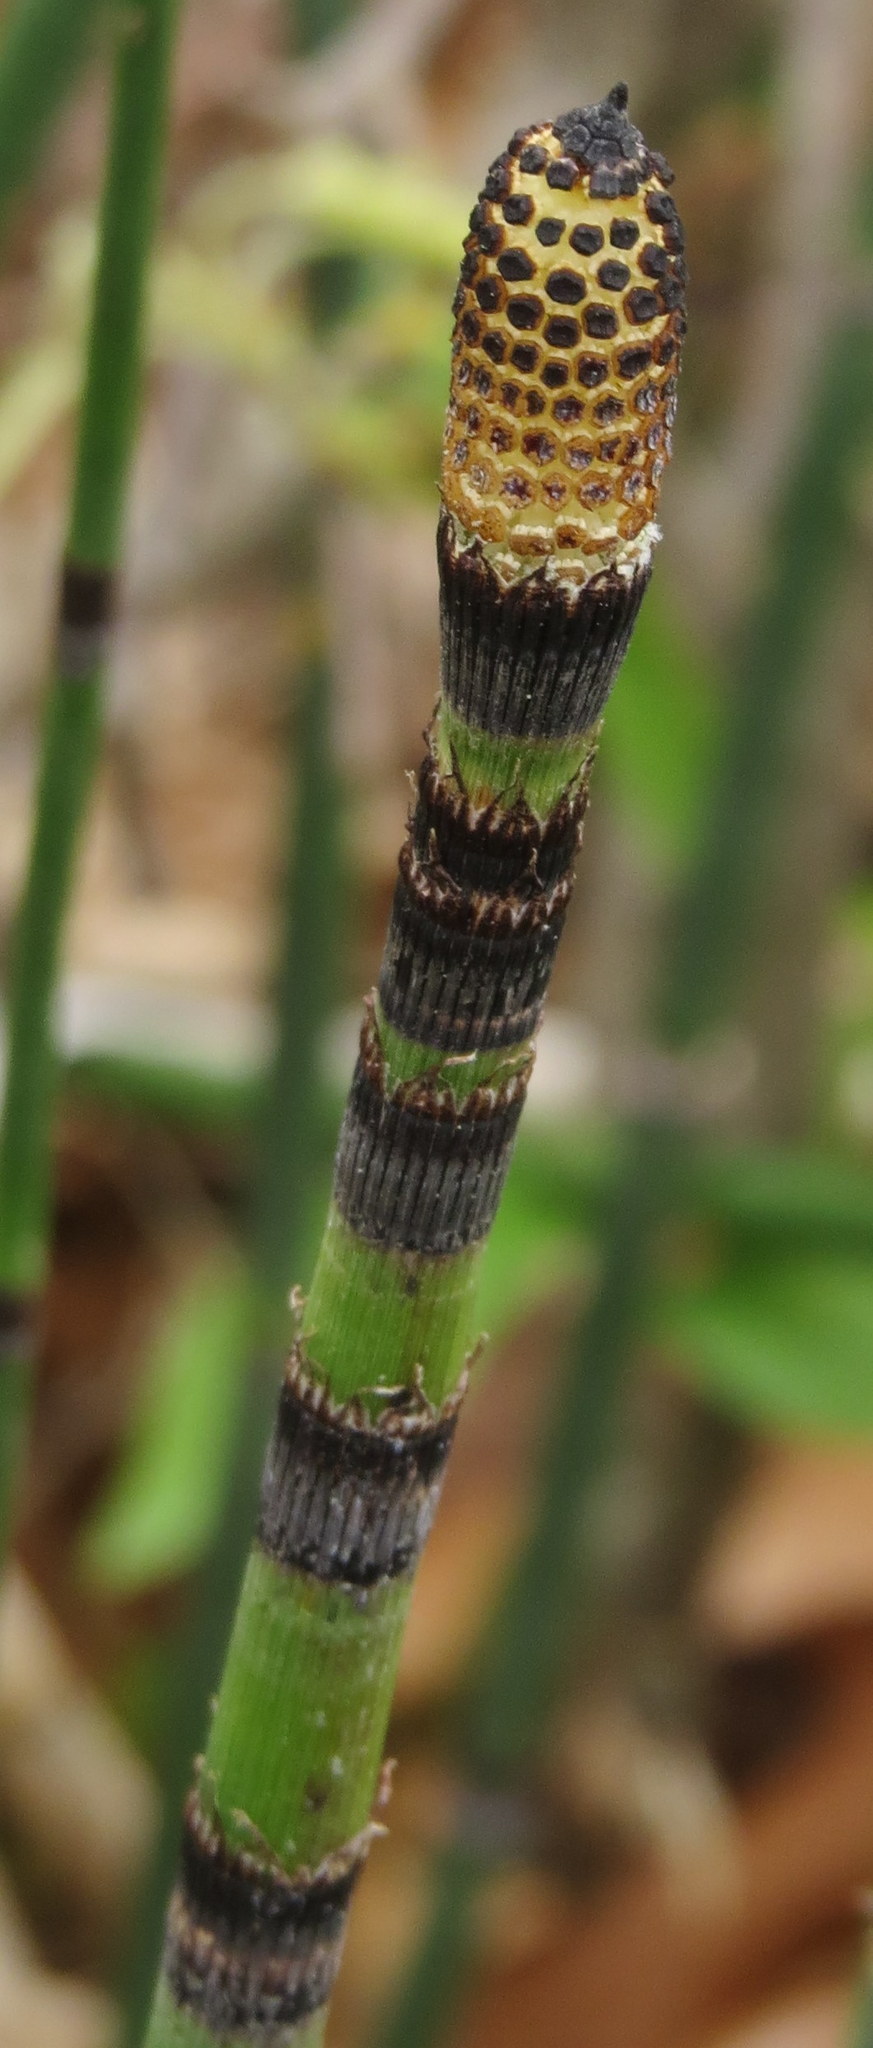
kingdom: Plantae
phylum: Tracheophyta
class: Polypodiopsida
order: Equisetales
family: Equisetaceae
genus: Equisetum
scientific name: Equisetum hyemale
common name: Rough horsetail
